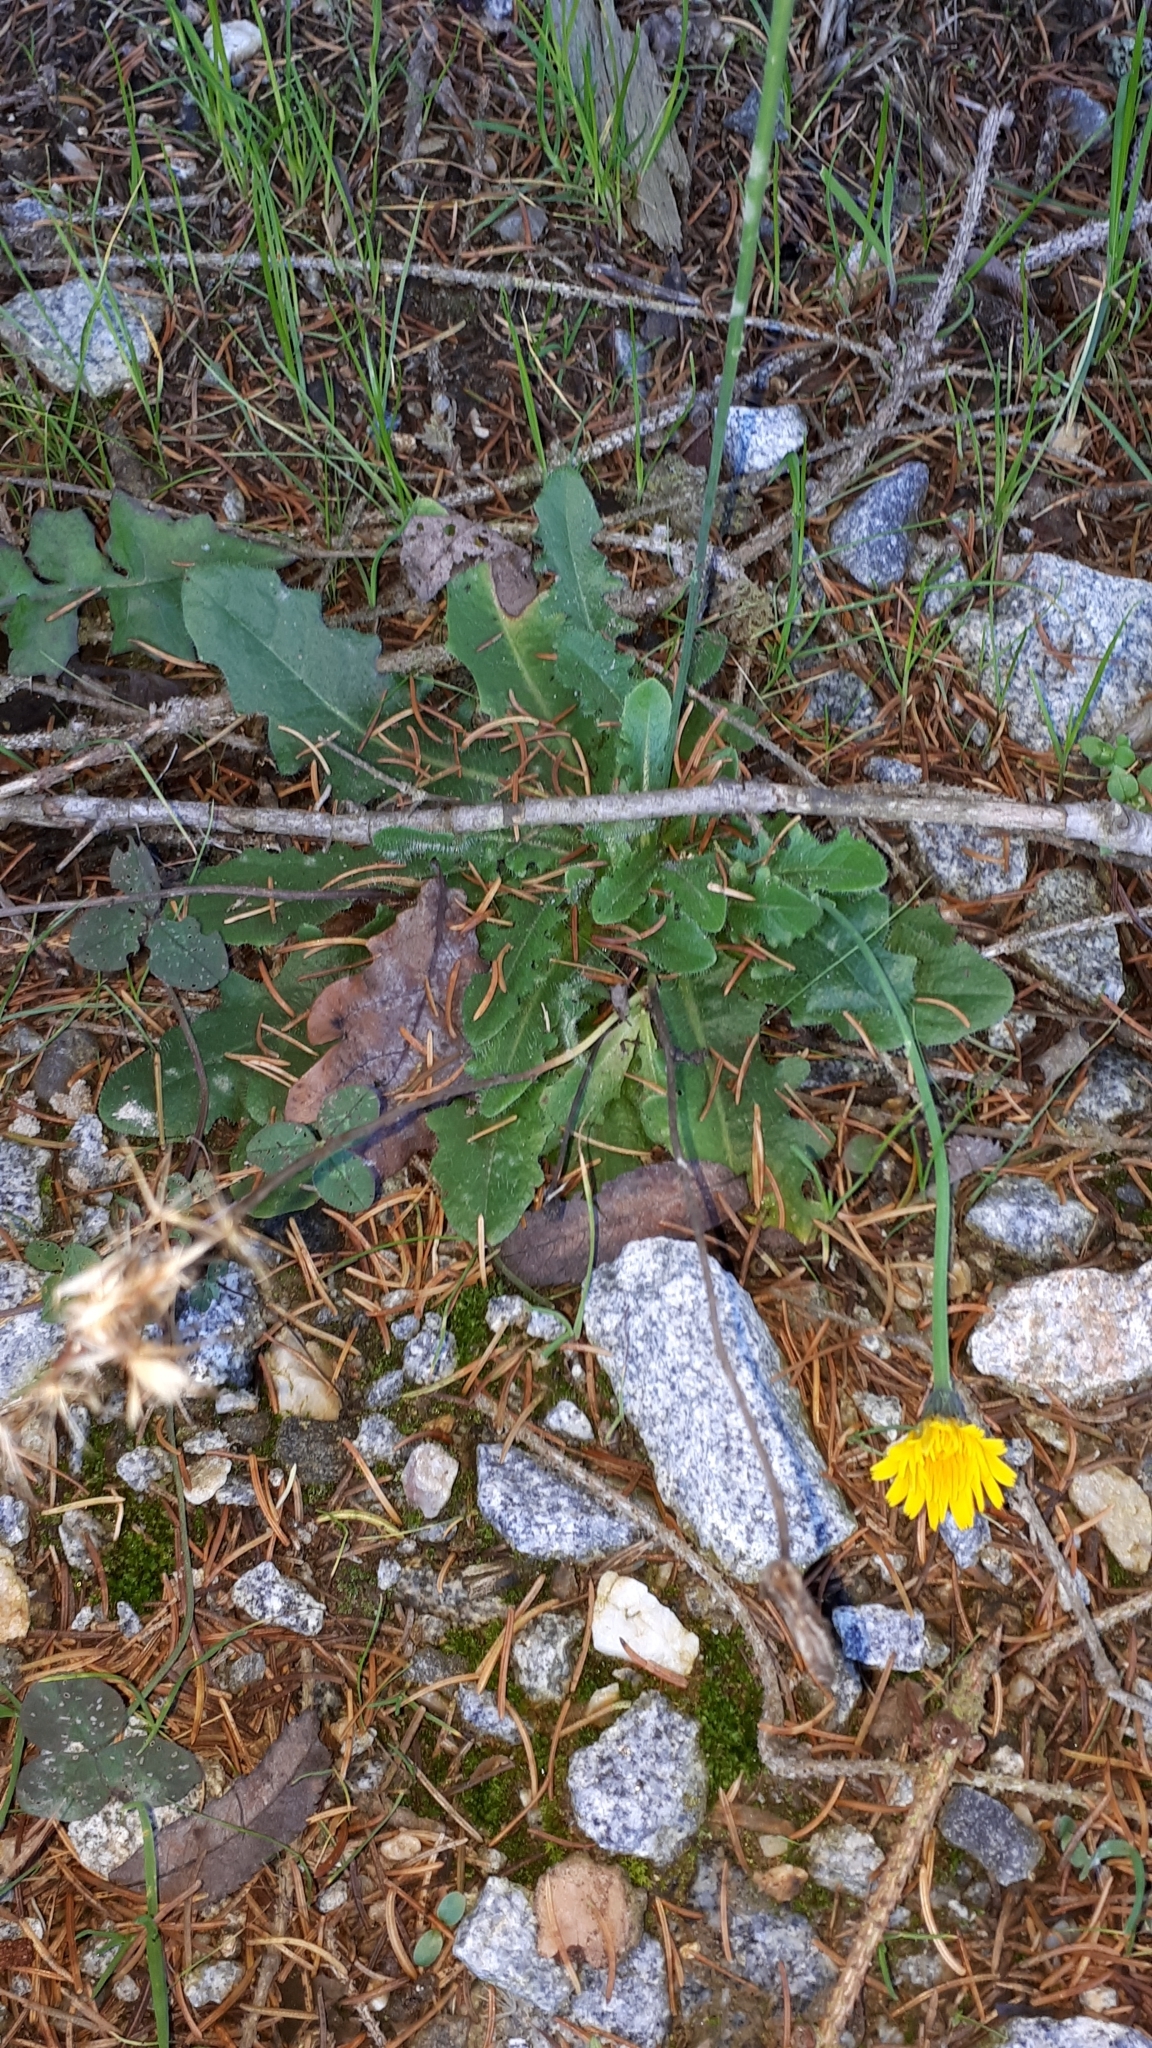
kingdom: Plantae
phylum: Tracheophyta
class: Magnoliopsida
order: Asterales
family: Asteraceae
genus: Hypochaeris
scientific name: Hypochaeris radicata
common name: Flatweed
